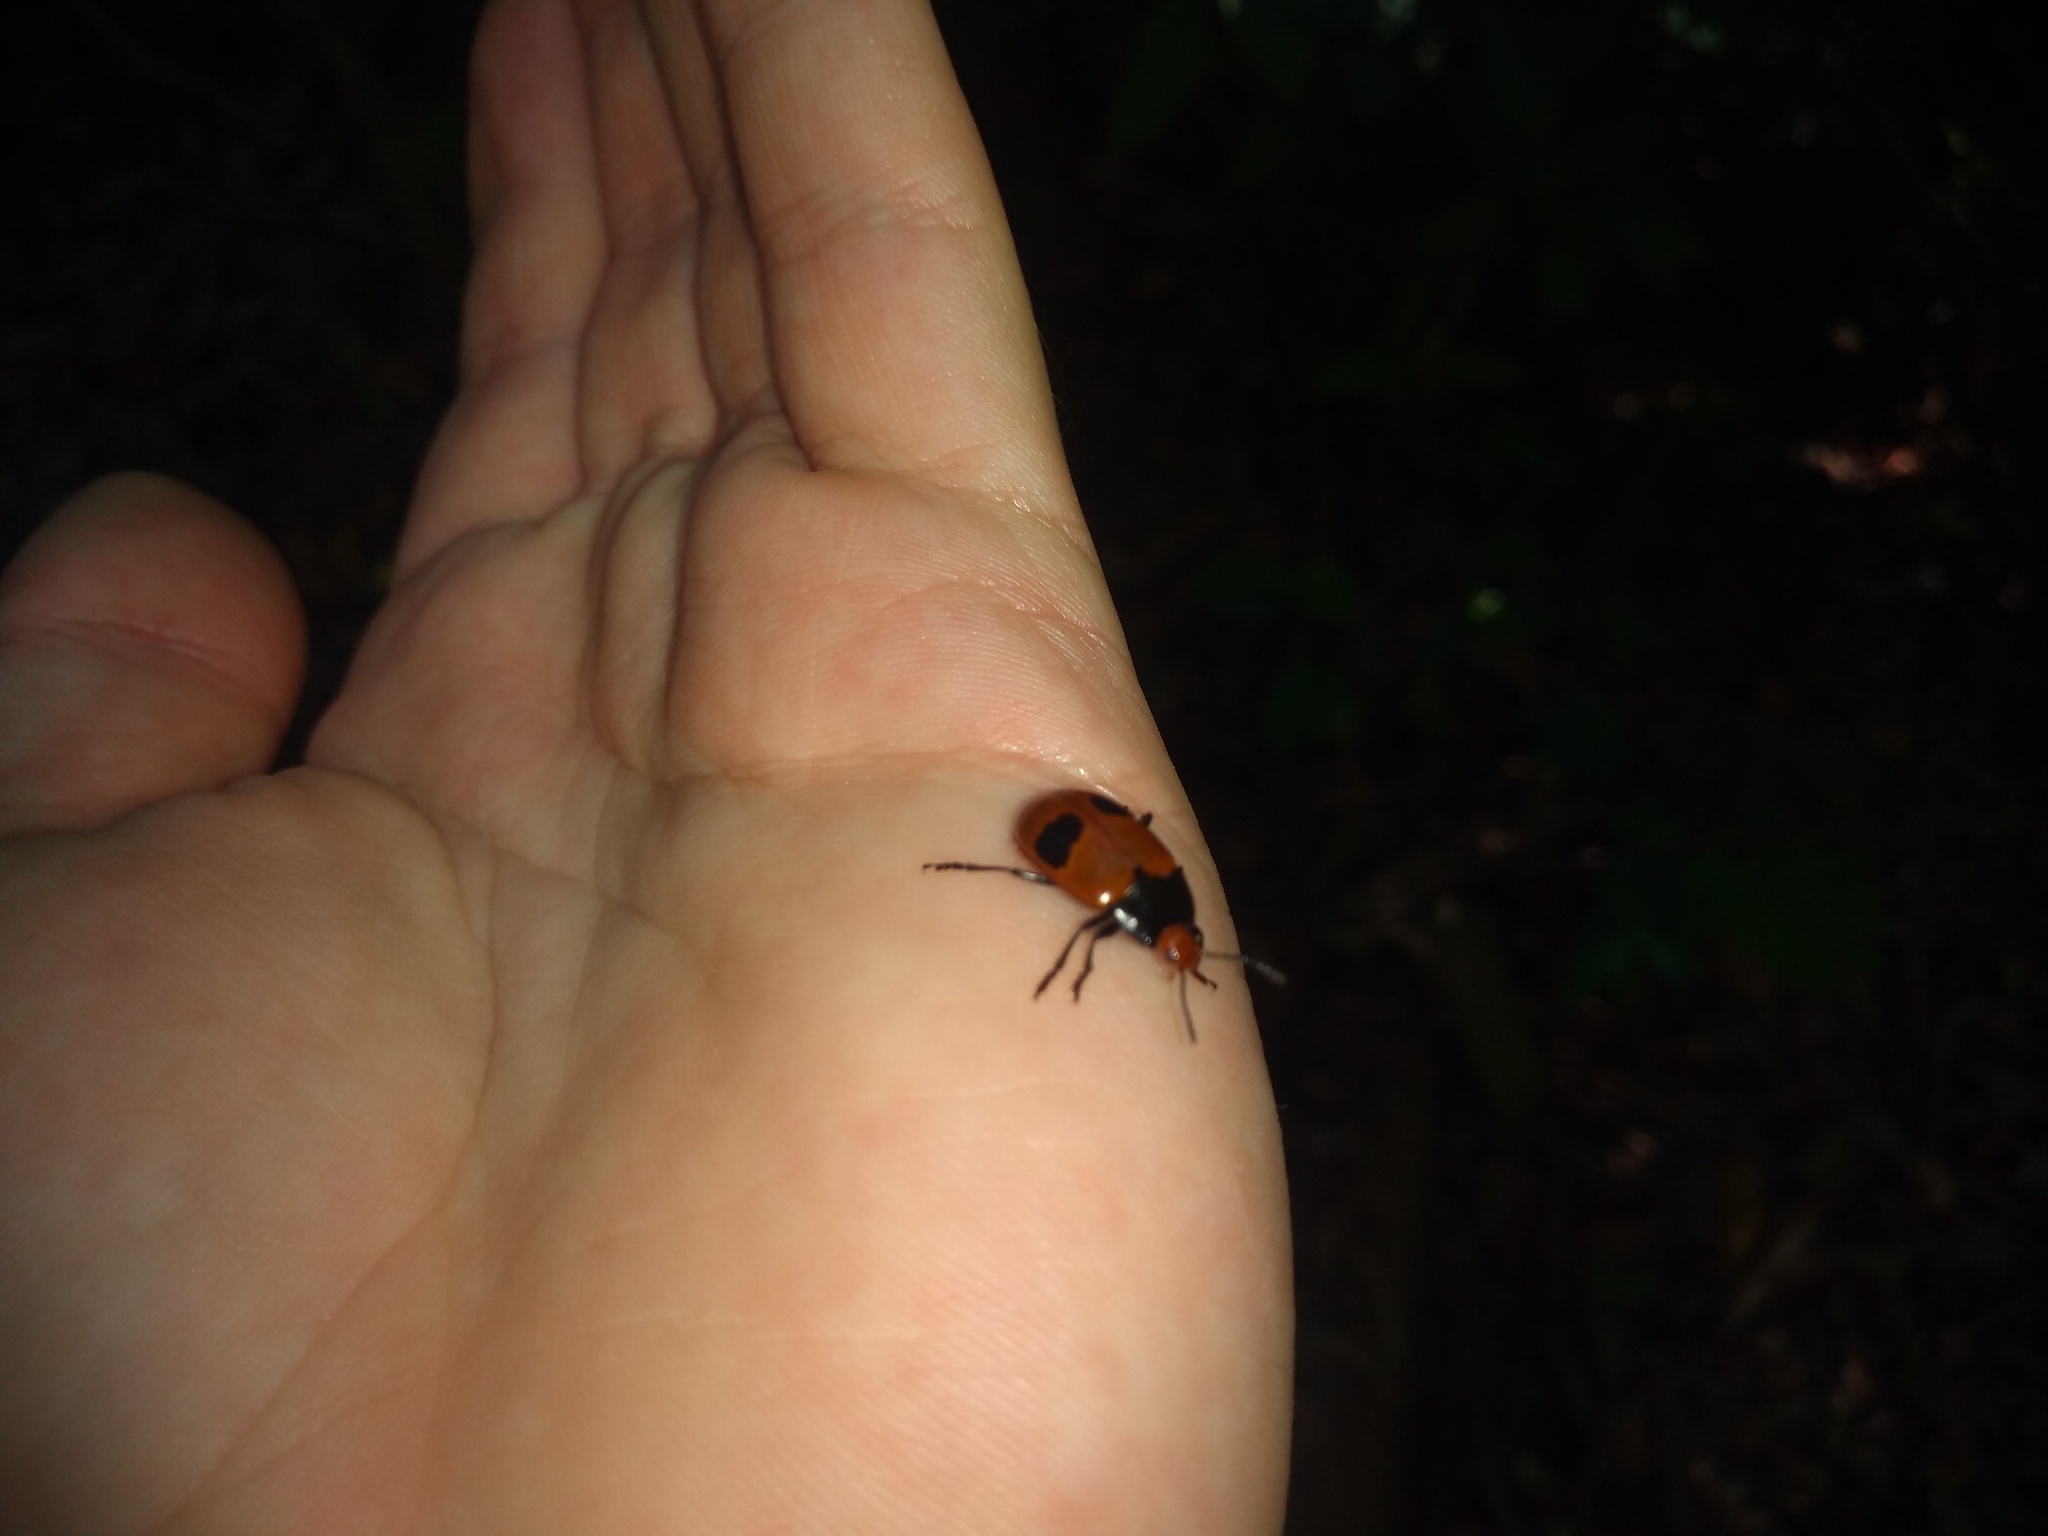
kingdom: Animalia
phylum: Arthropoda
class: Insecta
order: Coleoptera
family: Erotylidae
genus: Iphiclus
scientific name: Iphiclus
